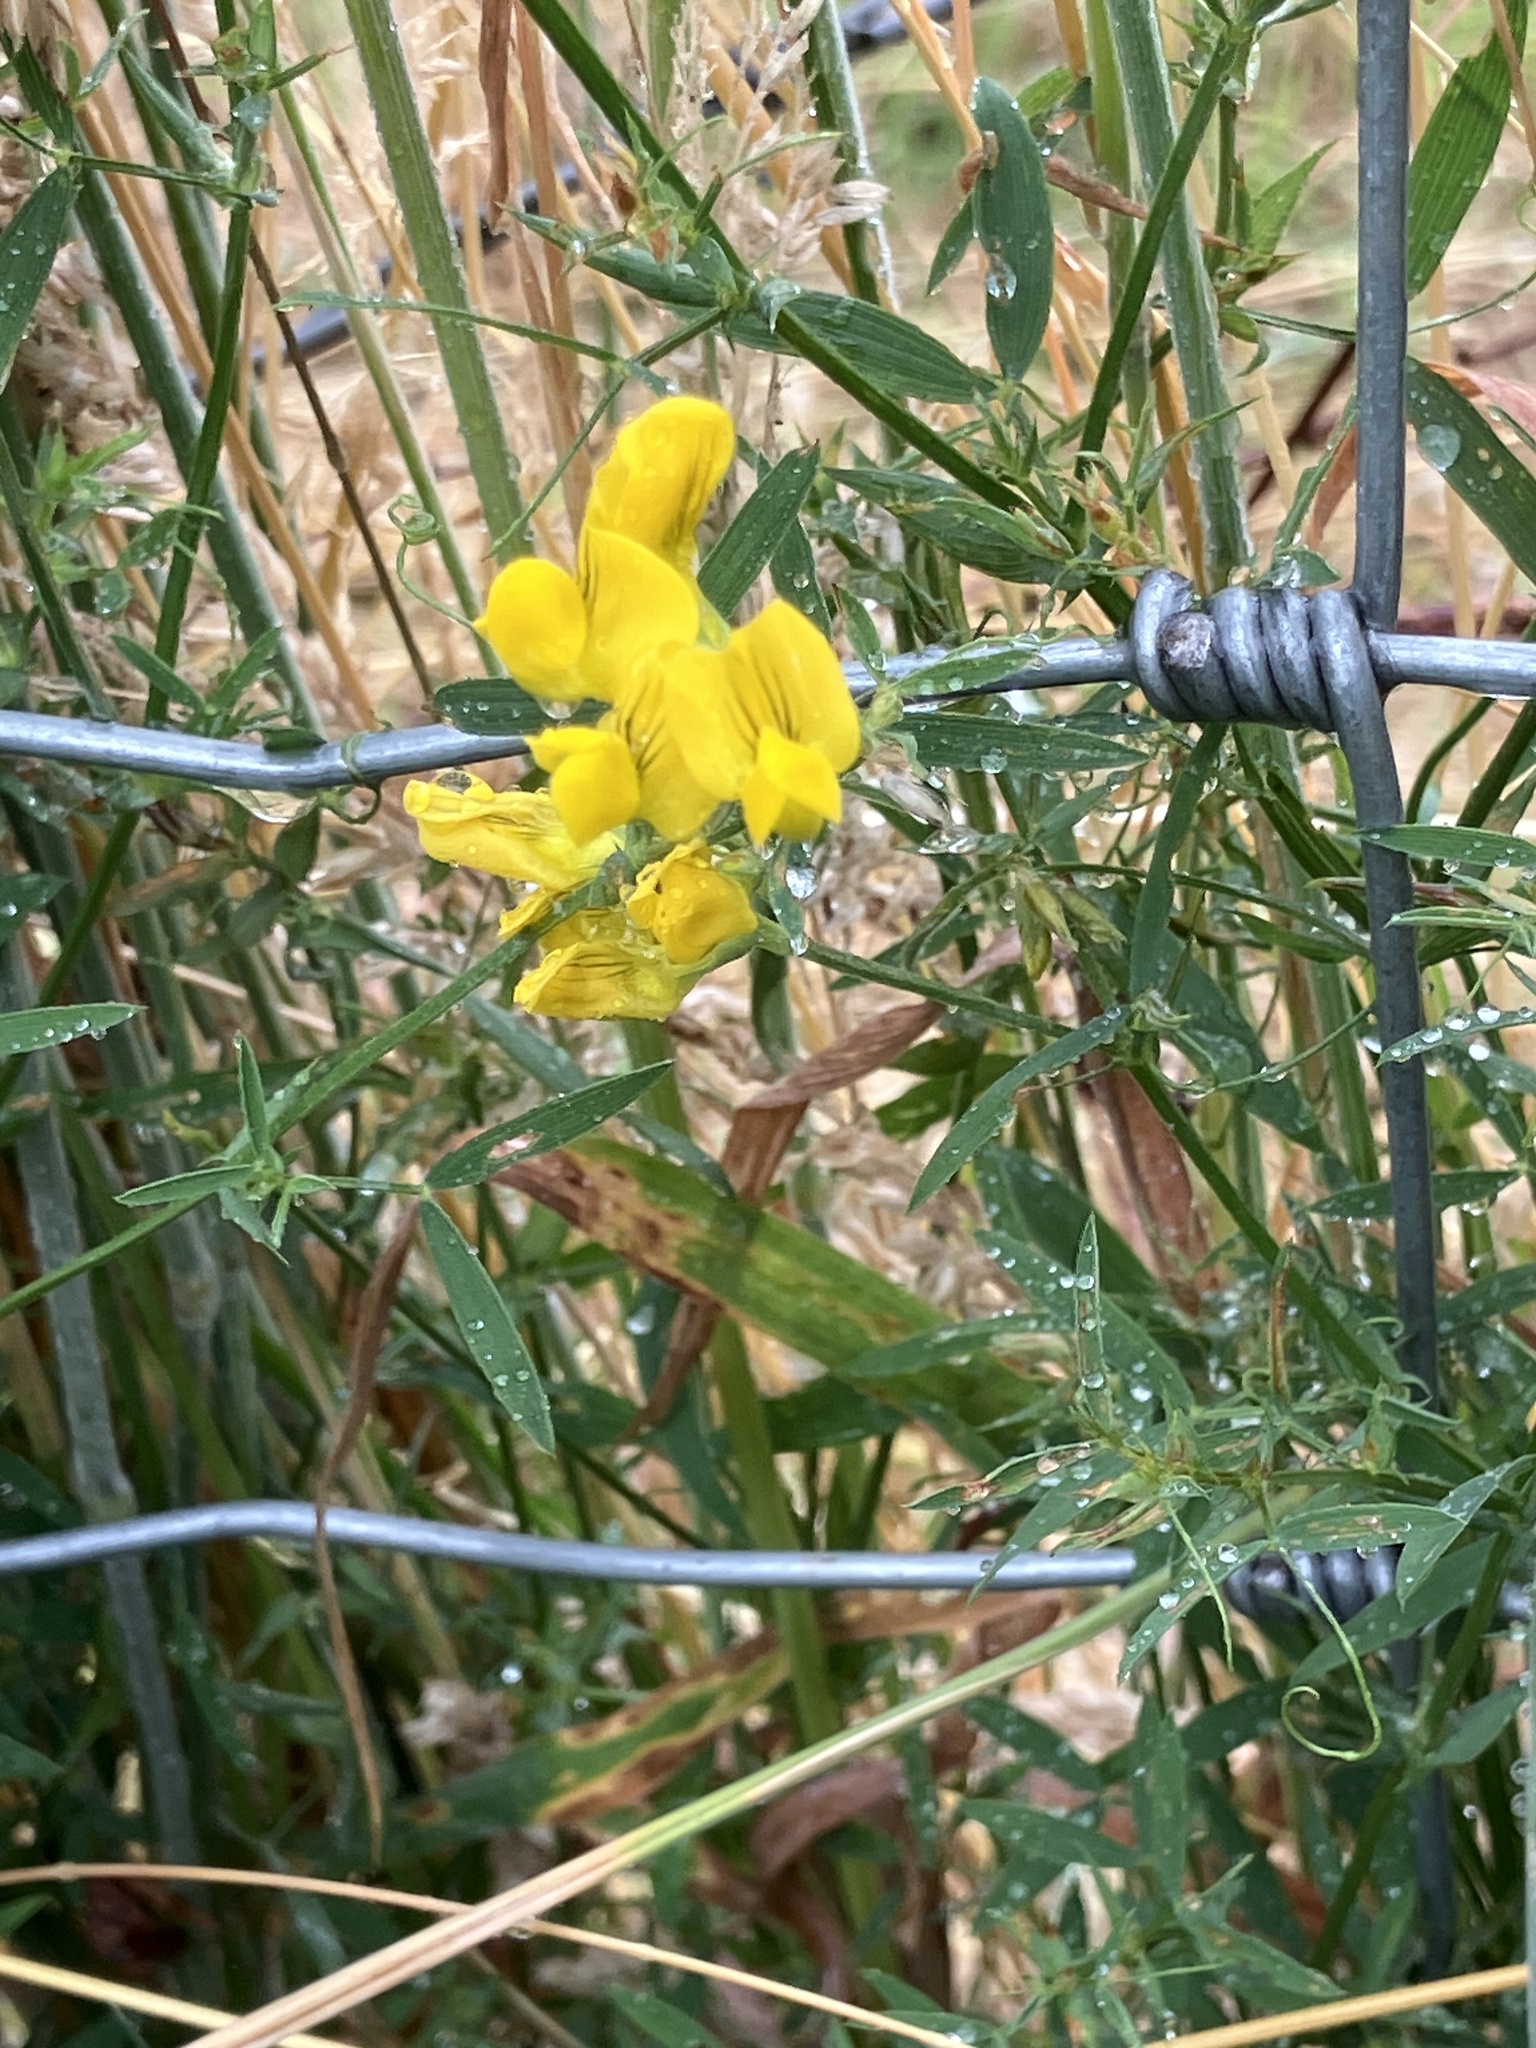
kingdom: Plantae
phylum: Tracheophyta
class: Magnoliopsida
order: Fabales
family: Fabaceae
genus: Lathyrus
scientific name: Lathyrus pratensis
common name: Meadow vetchling
